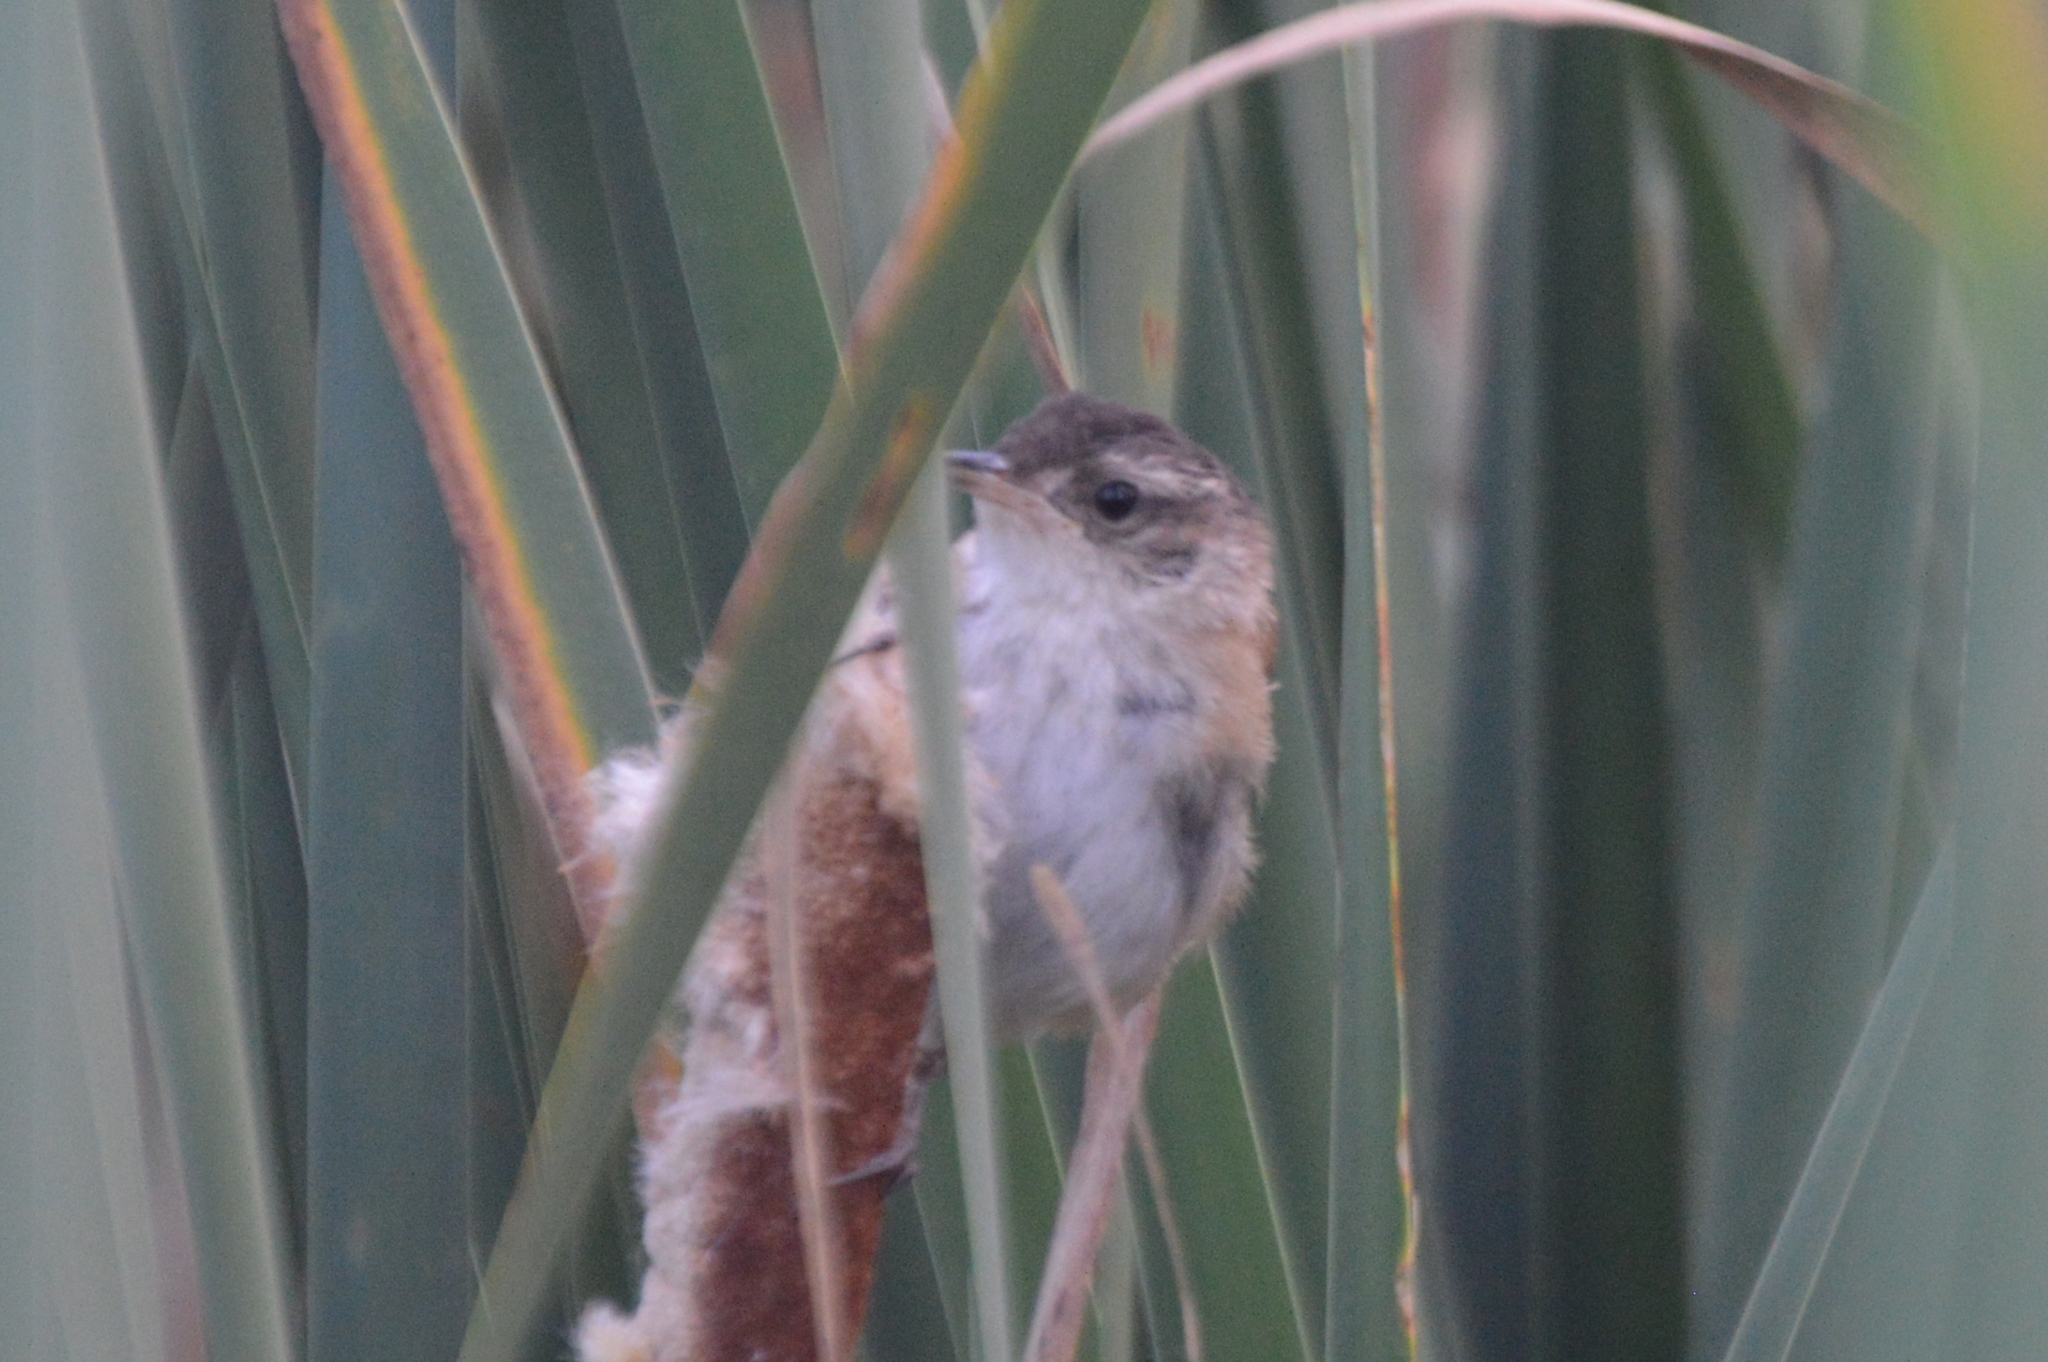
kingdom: Animalia
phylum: Chordata
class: Aves
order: Passeriformes
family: Troglodytidae
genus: Cistothorus
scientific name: Cistothorus palustris
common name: Marsh wren
